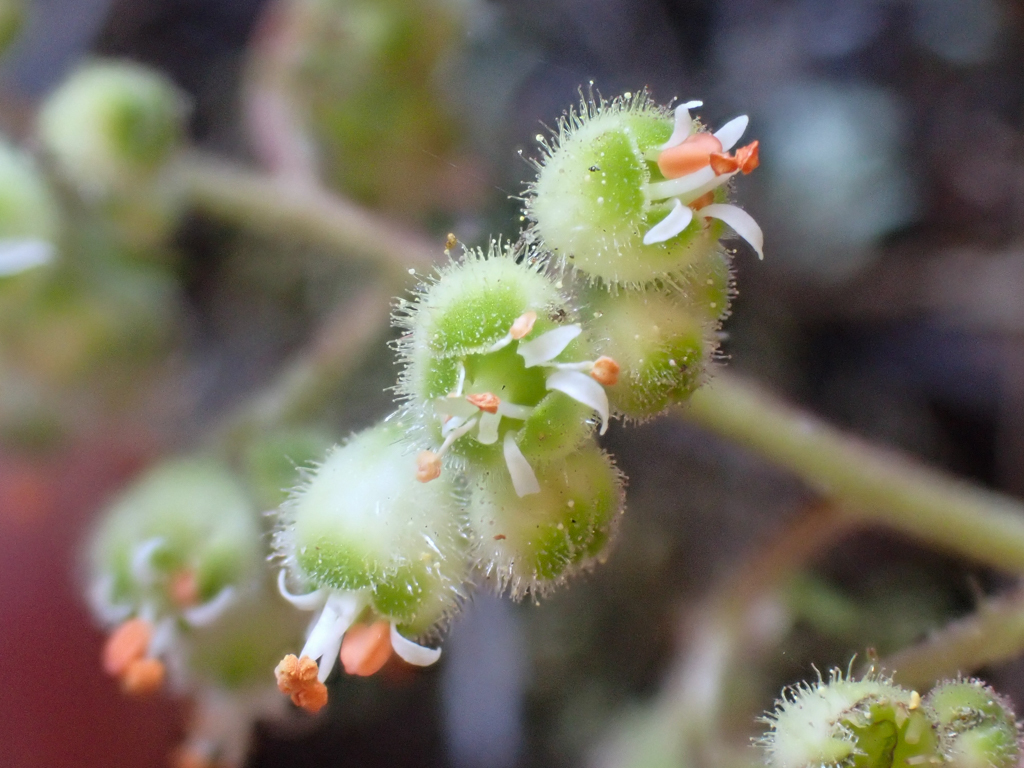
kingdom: Plantae
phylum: Tracheophyta
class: Magnoliopsida
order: Saxifragales
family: Saxifragaceae
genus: Heuchera
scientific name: Heuchera merriamii
